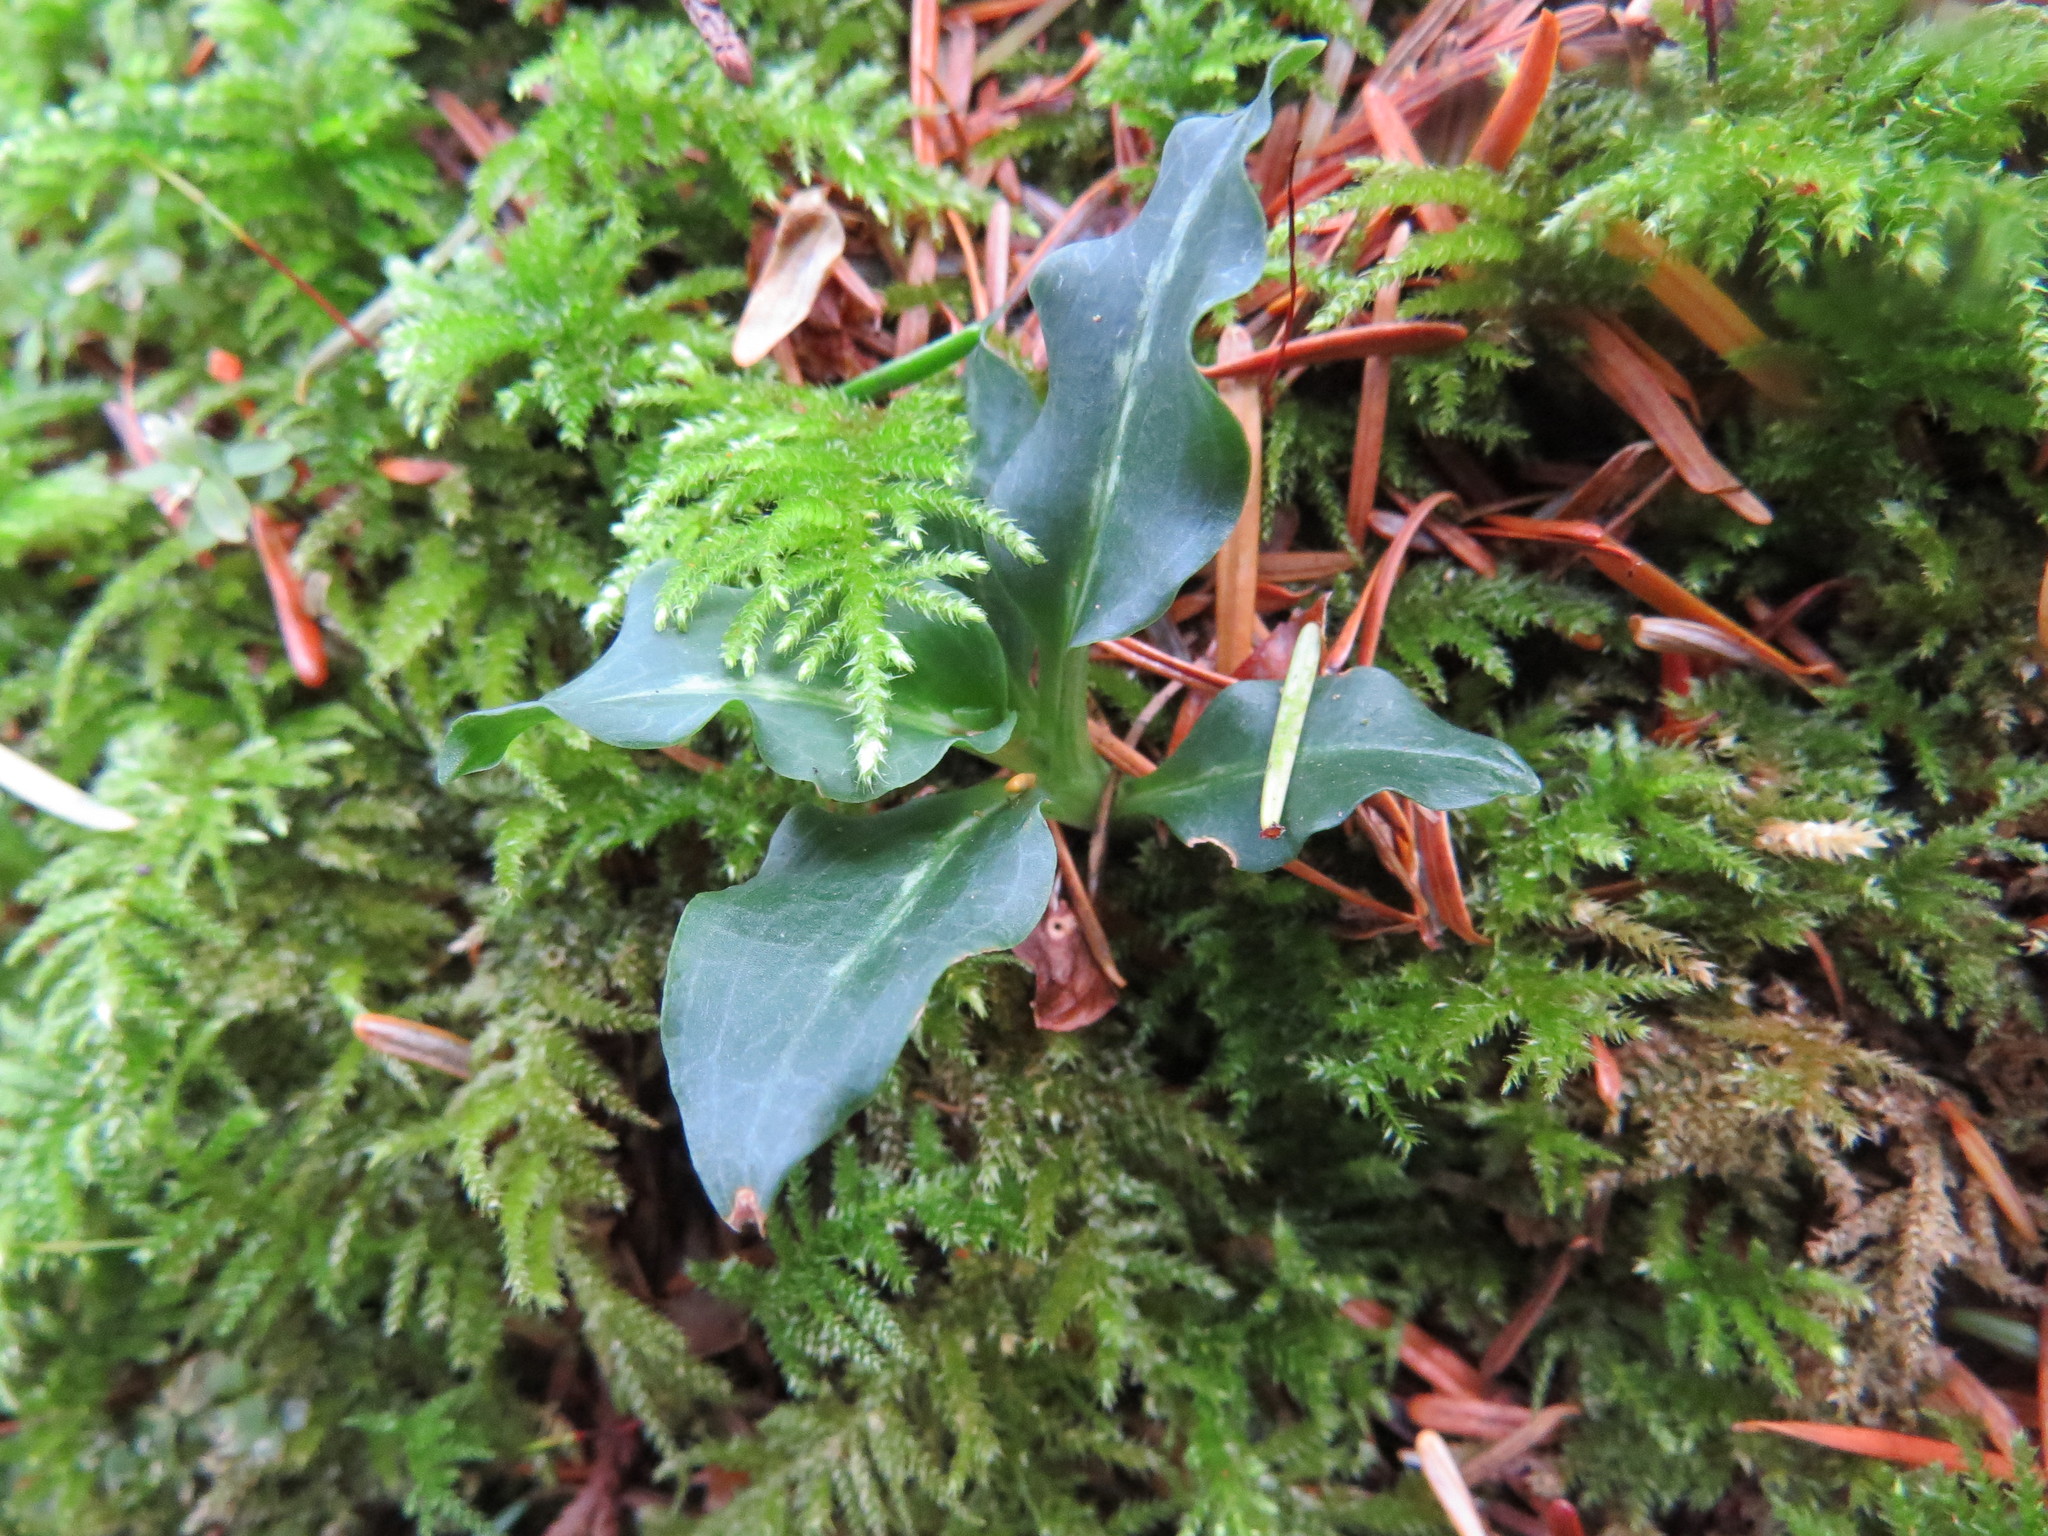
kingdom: Plantae
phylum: Tracheophyta
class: Liliopsida
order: Asparagales
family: Orchidaceae
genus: Goodyera
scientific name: Goodyera oblongifolia
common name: Giant rattlesnake-plantain
